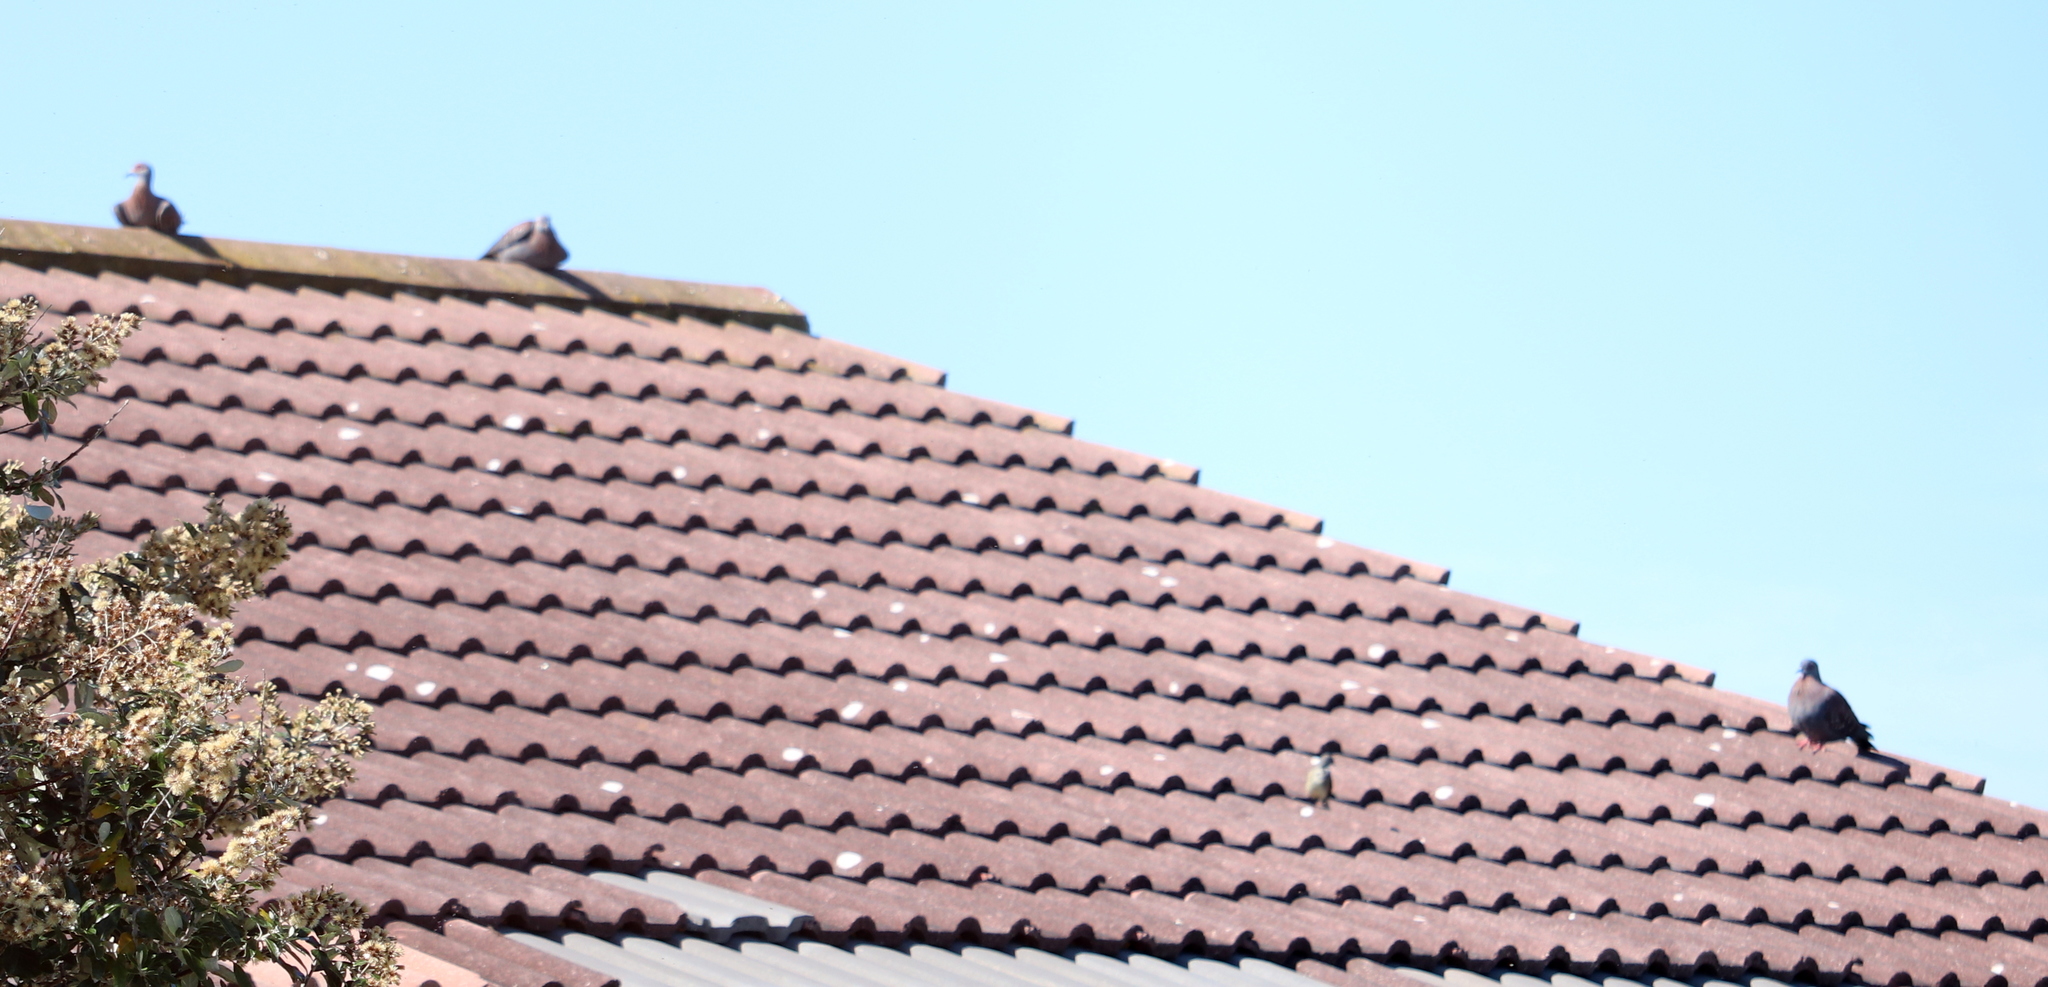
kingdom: Animalia
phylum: Chordata
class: Aves
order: Columbiformes
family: Columbidae
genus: Columba
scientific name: Columba guinea
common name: Speckled pigeon
